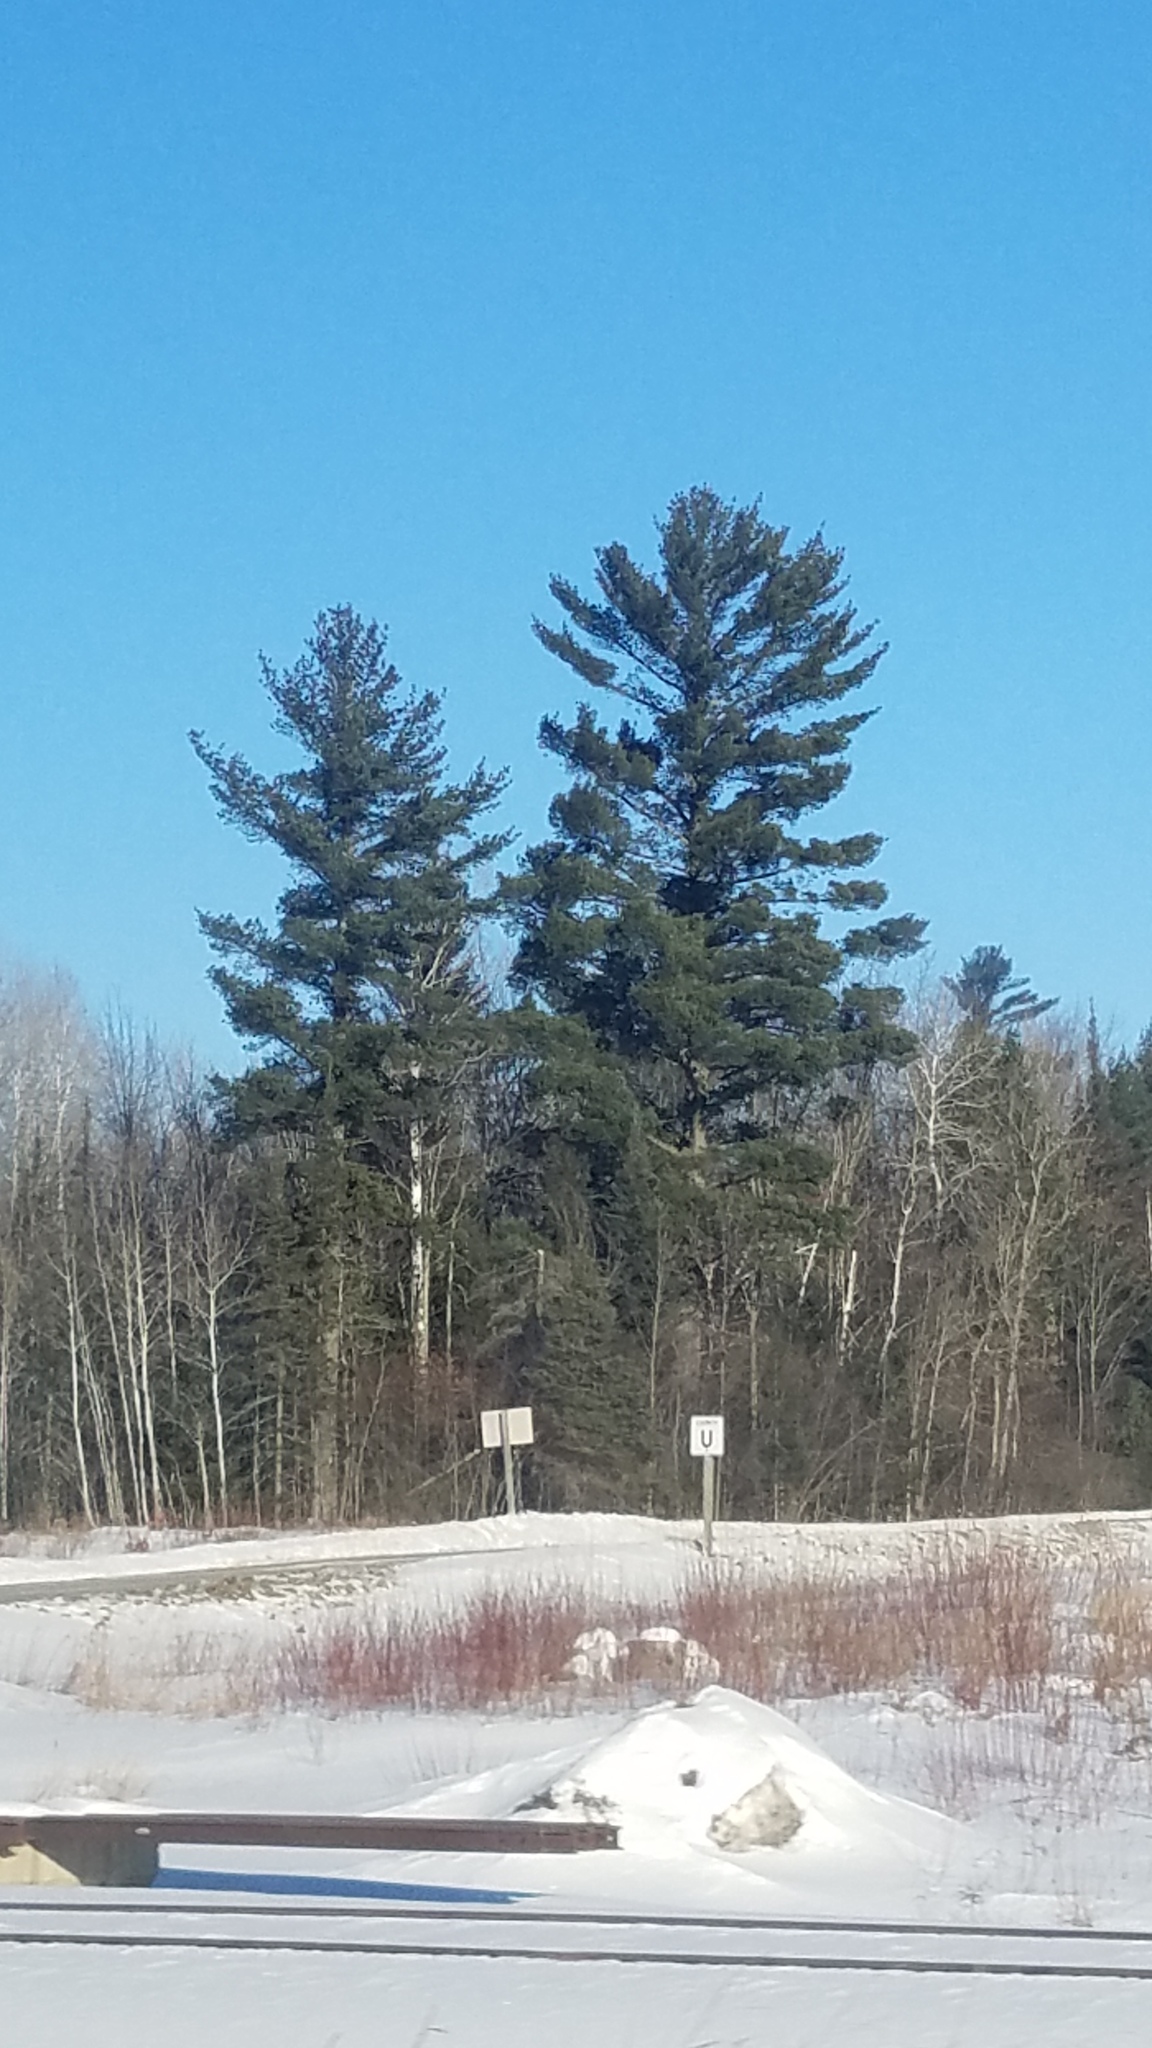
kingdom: Plantae
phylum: Tracheophyta
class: Pinopsida
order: Pinales
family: Pinaceae
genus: Pinus
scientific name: Pinus strobus
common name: Weymouth pine
